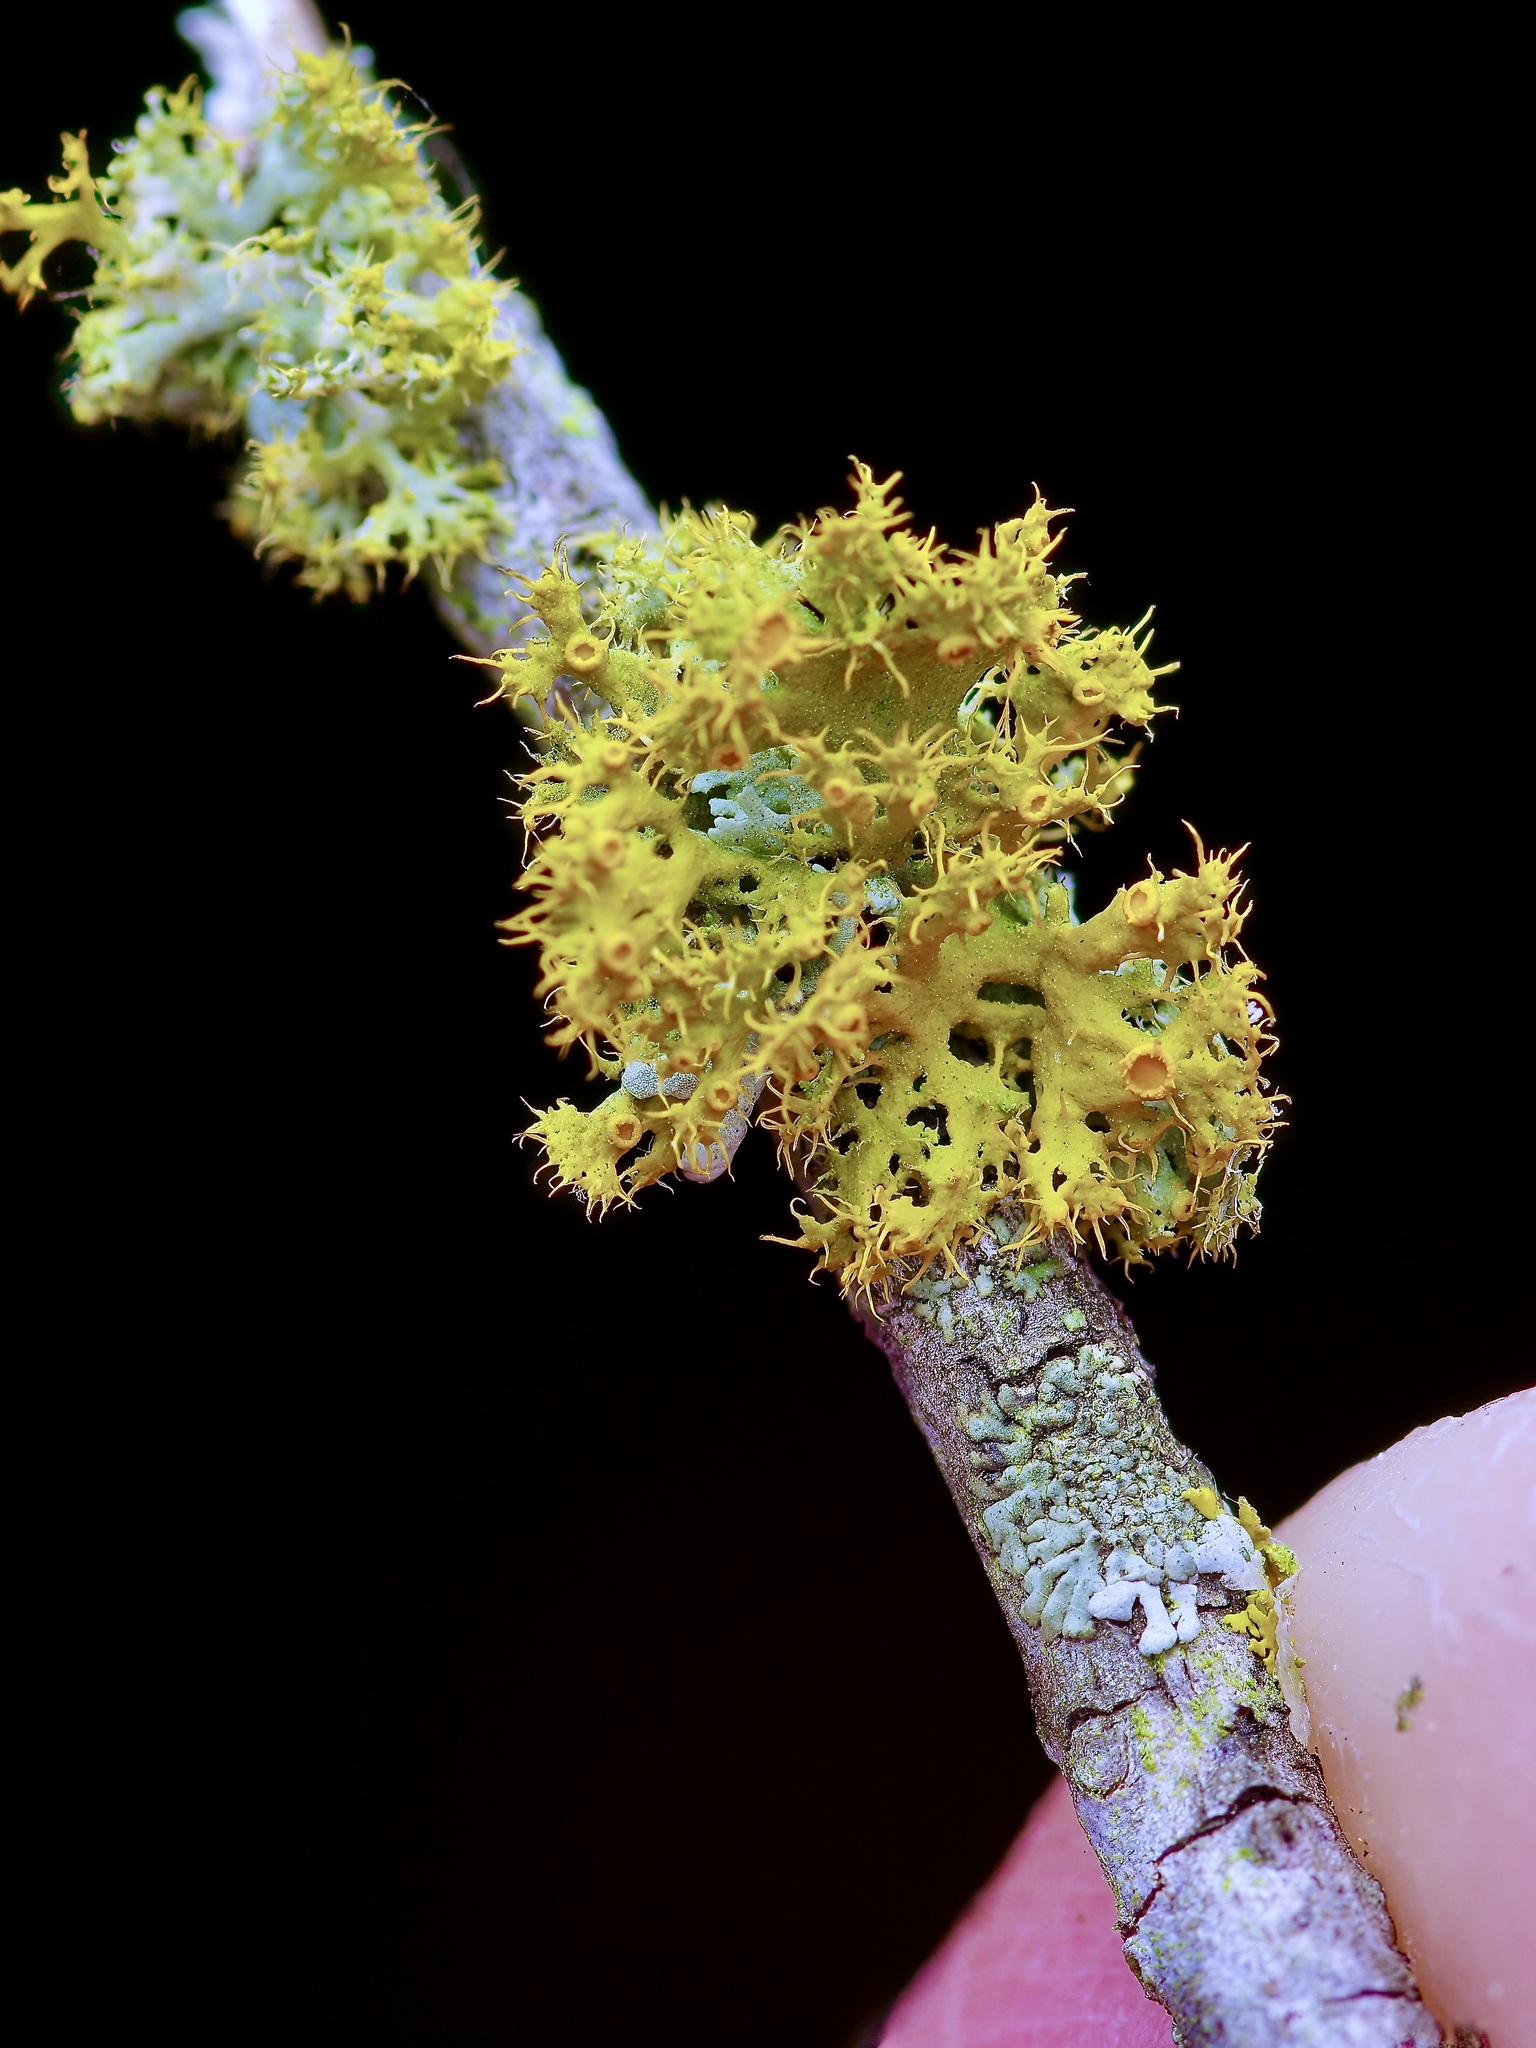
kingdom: Fungi
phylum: Ascomycota
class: Lecanoromycetes
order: Teloschistales
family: Teloschistaceae
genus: Niorma
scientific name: Niorma chrysophthalma
